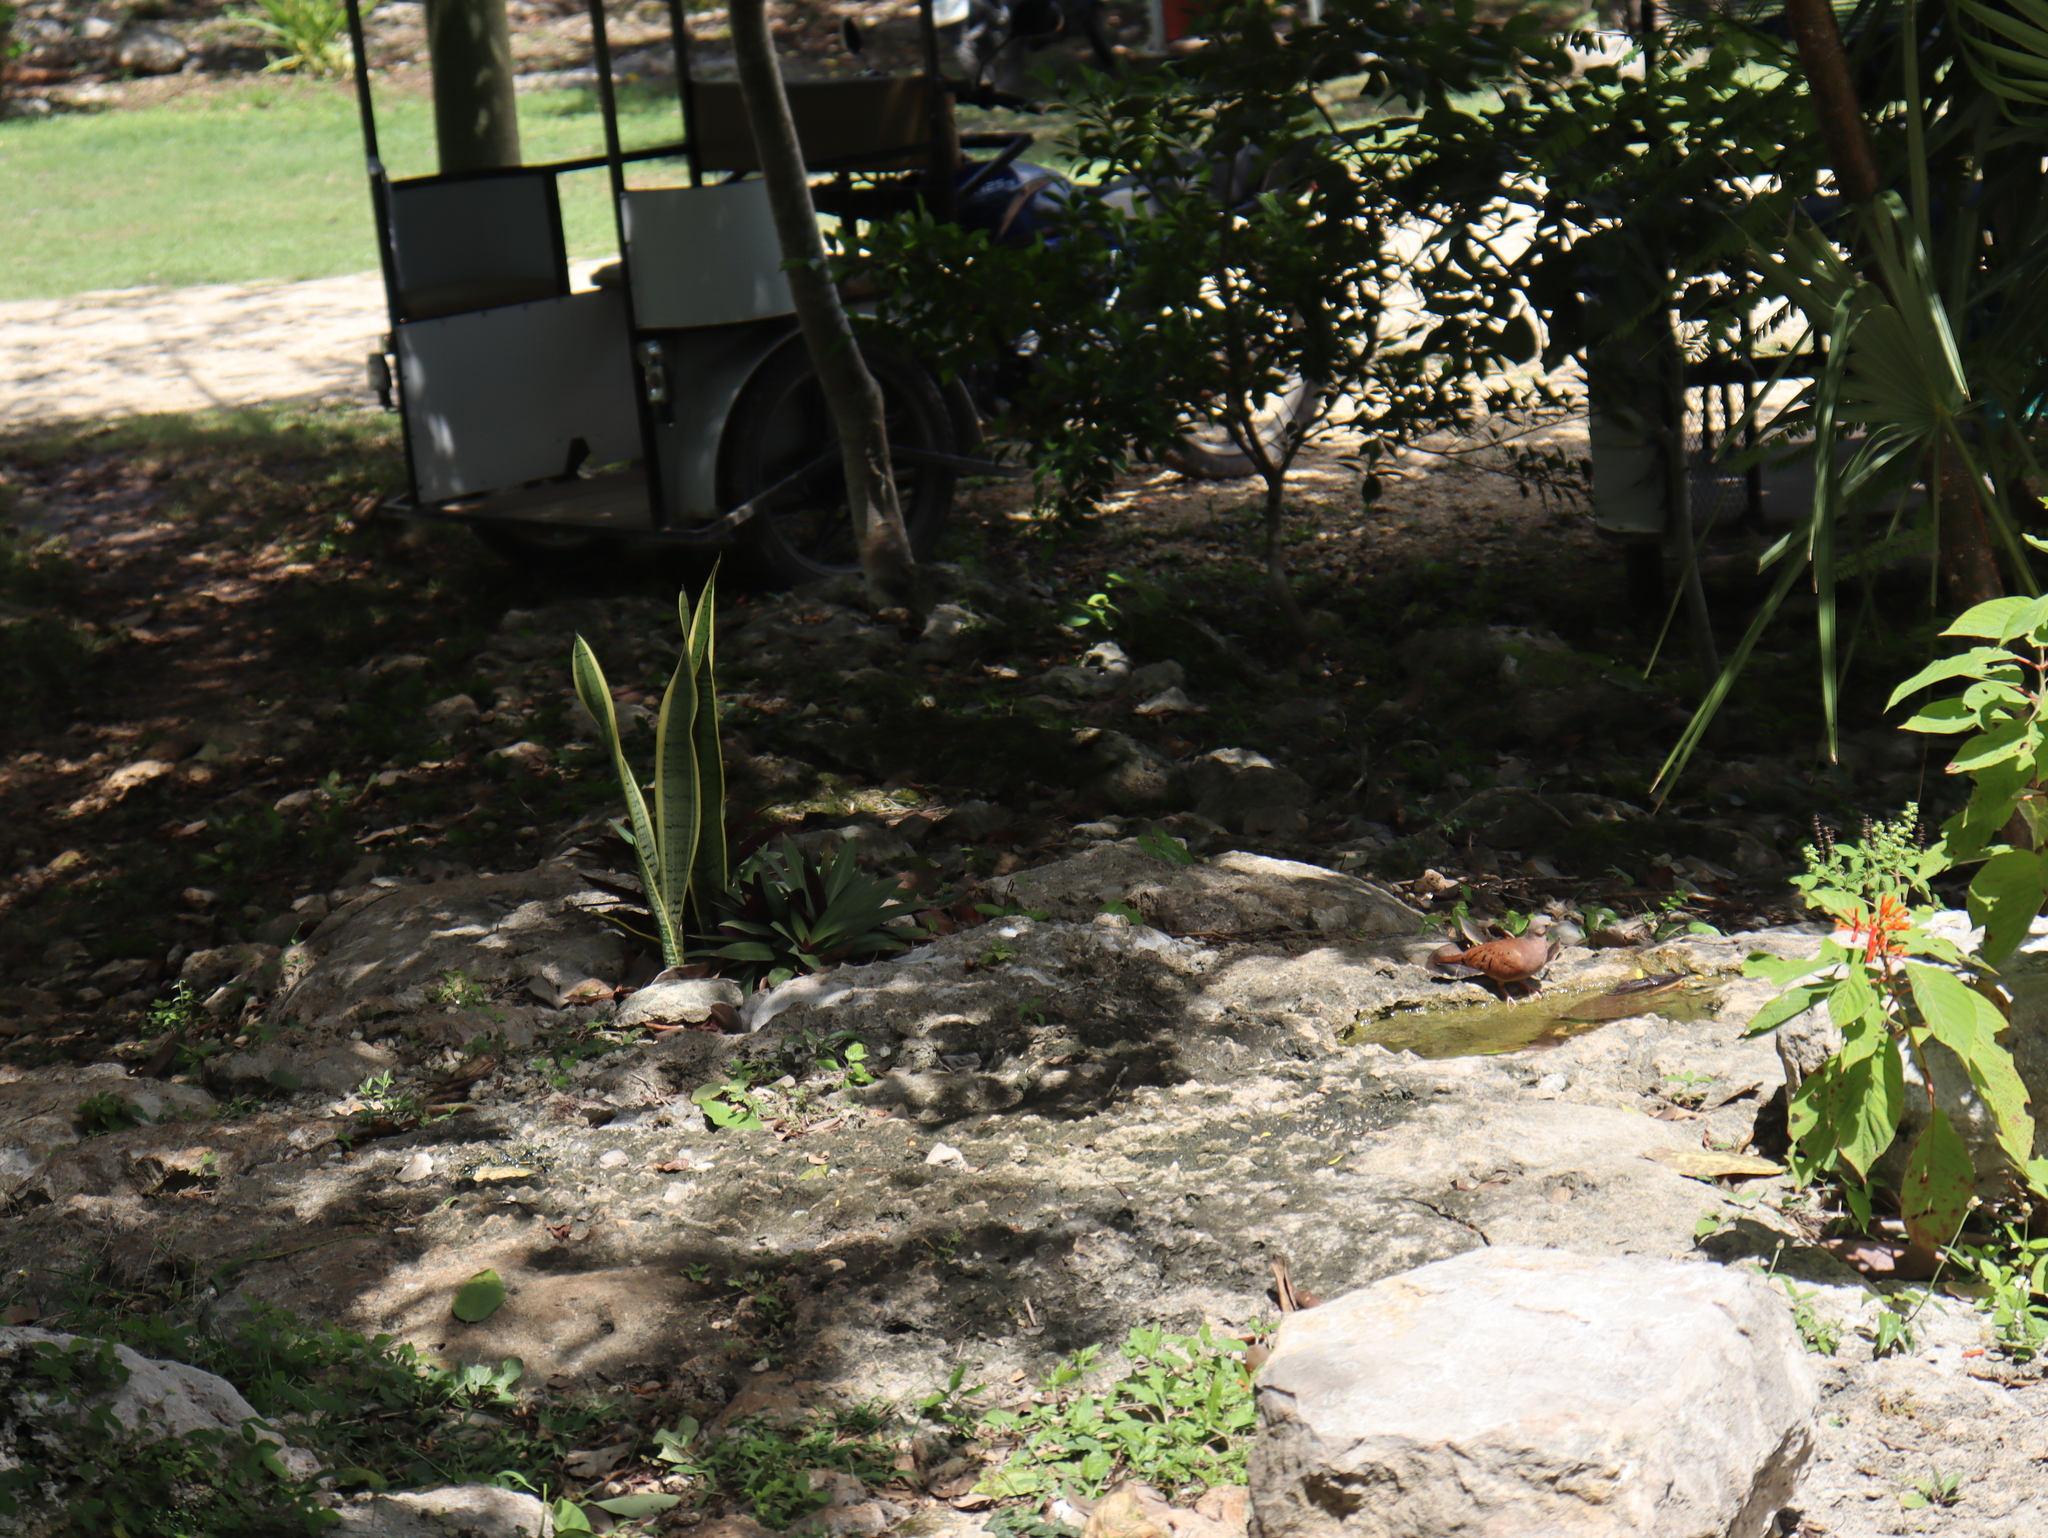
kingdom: Animalia
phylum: Chordata
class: Aves
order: Columbiformes
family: Columbidae
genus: Columbina
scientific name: Columbina talpacoti
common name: Ruddy ground dove
